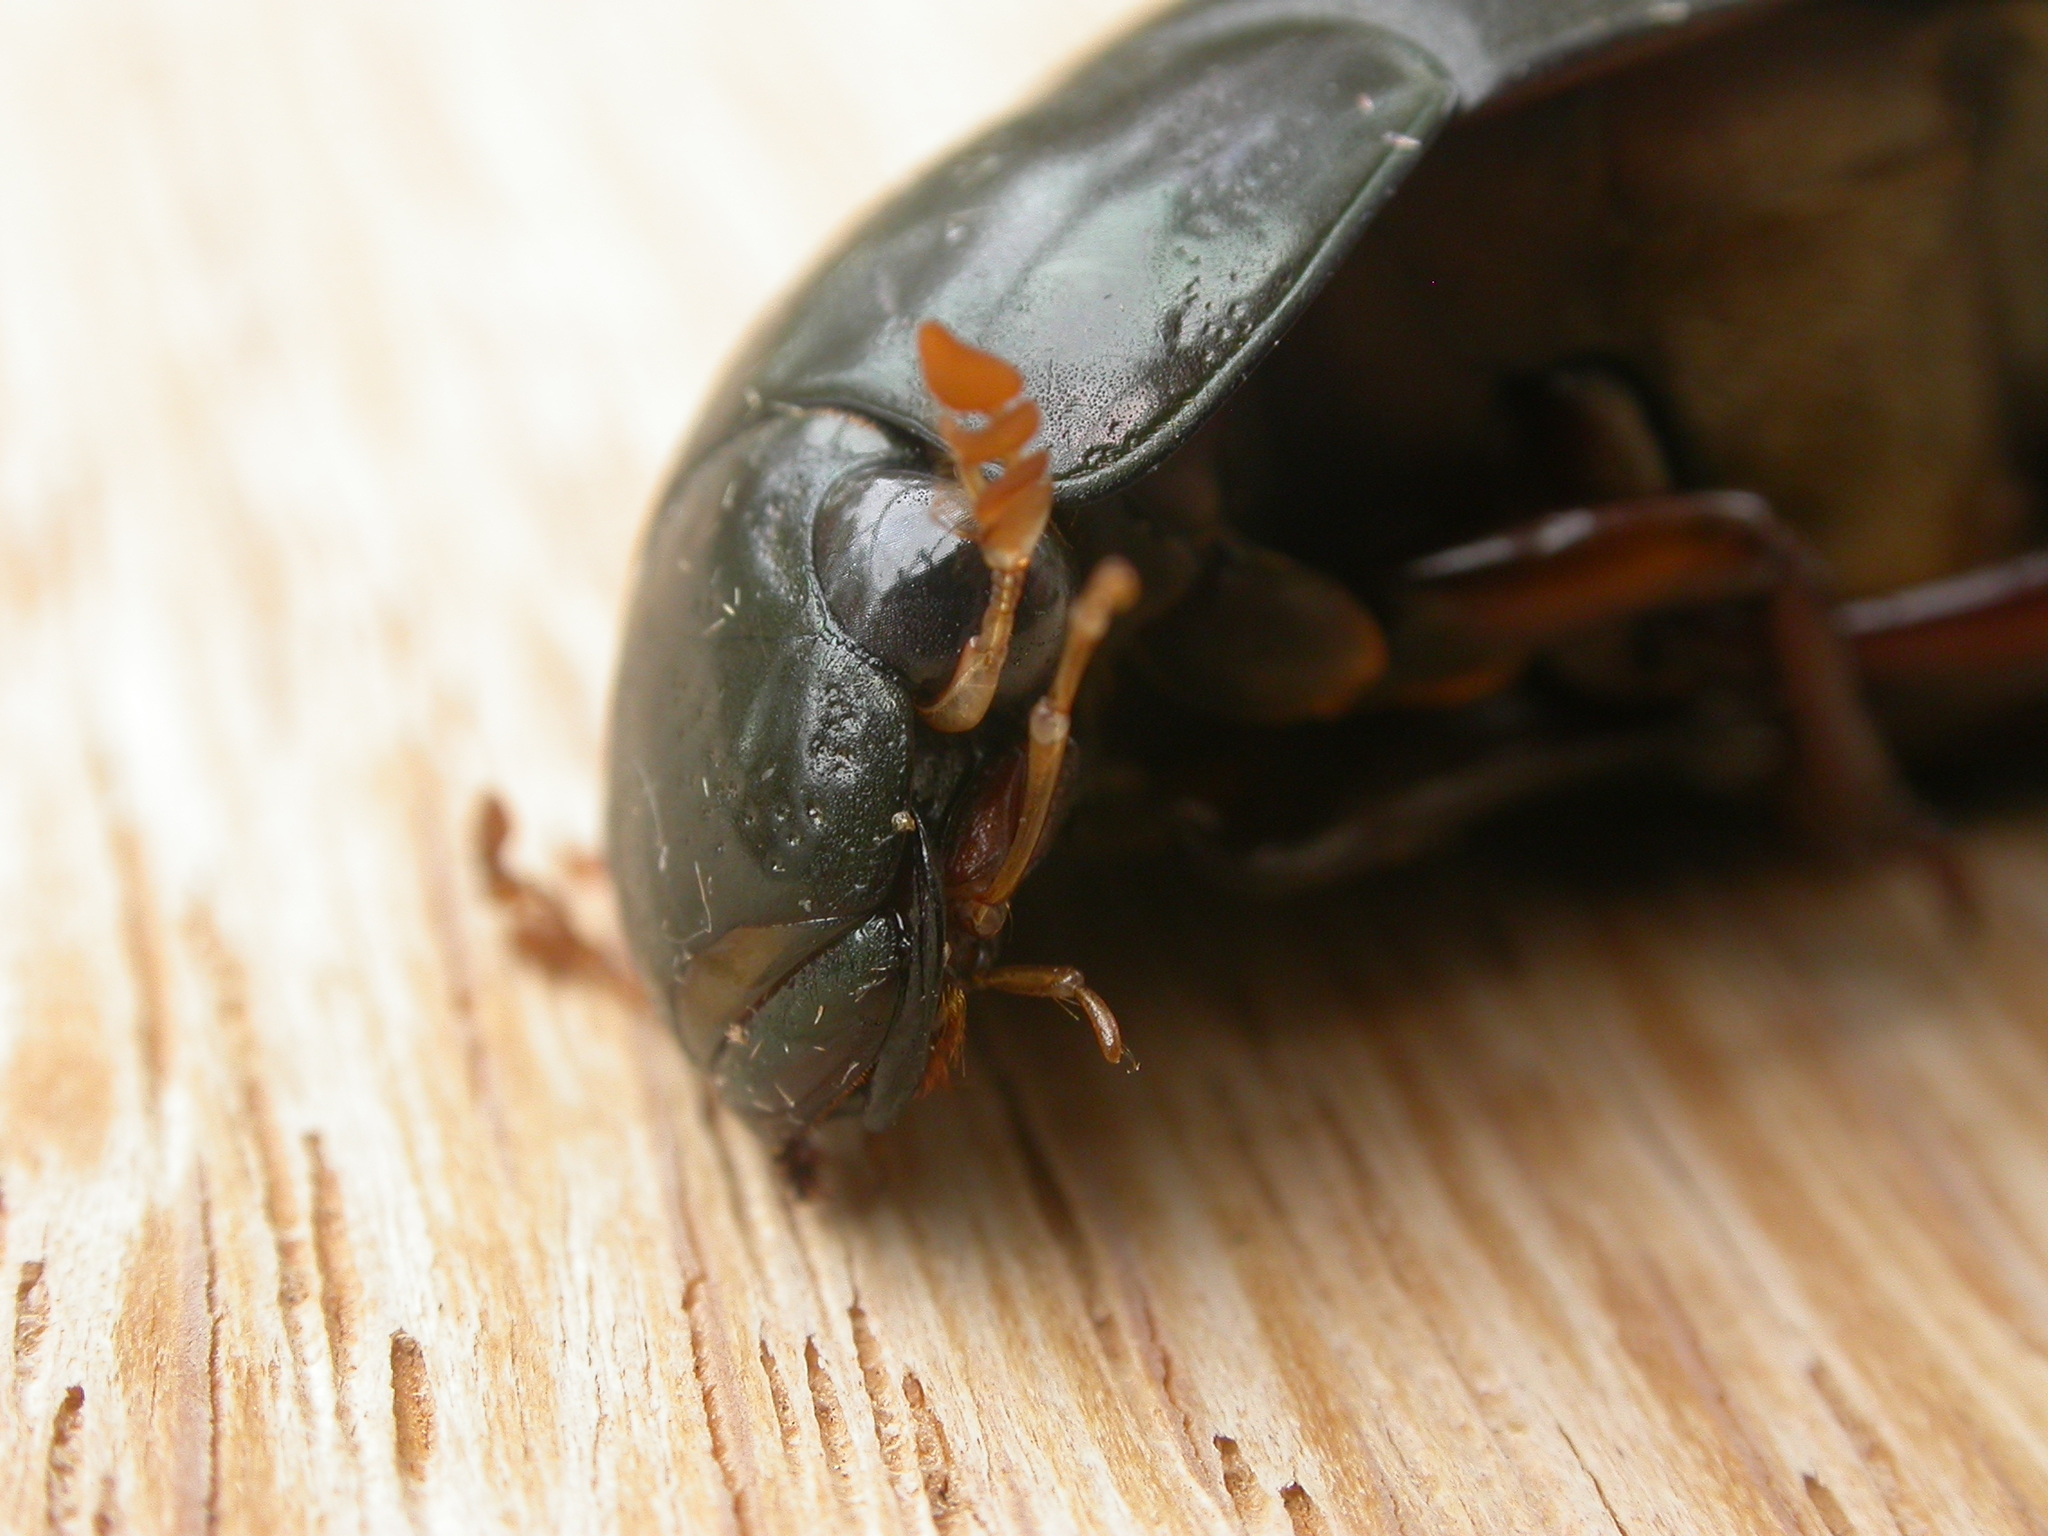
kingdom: Animalia
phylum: Arthropoda
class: Insecta
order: Coleoptera
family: Hydrophilidae
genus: Hydrophilus
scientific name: Hydrophilus brevispina
